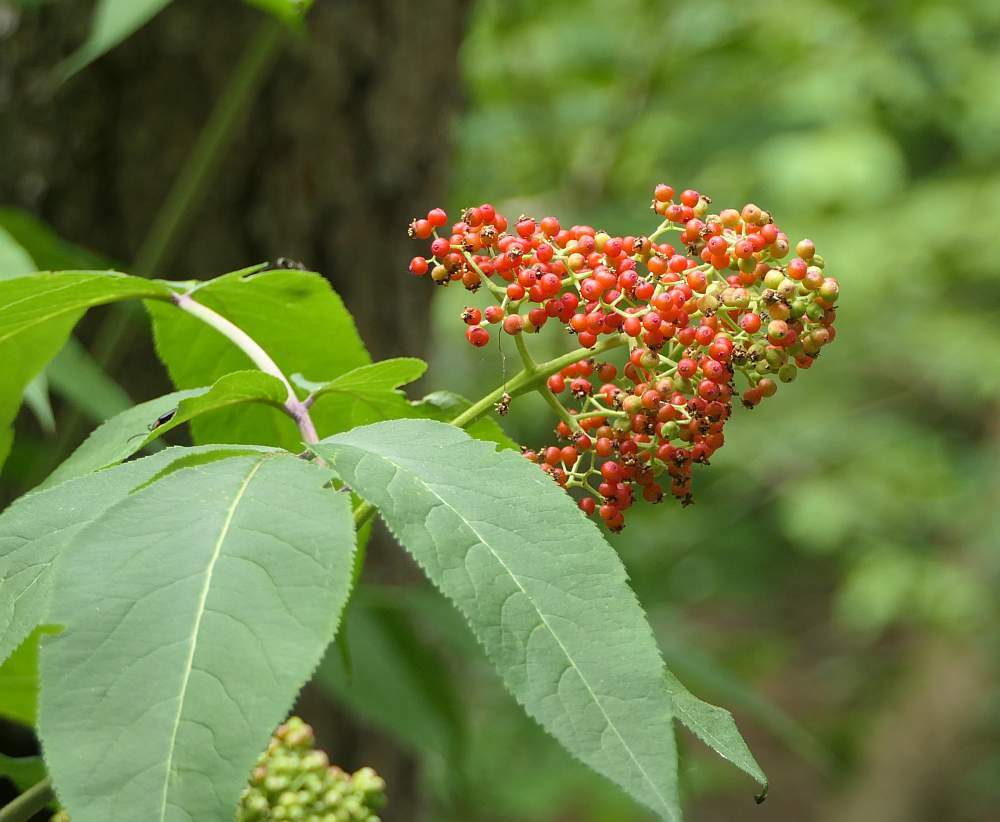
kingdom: Plantae
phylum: Tracheophyta
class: Magnoliopsida
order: Dipsacales
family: Viburnaceae
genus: Sambucus
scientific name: Sambucus racemosa
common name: Red-berried elder
